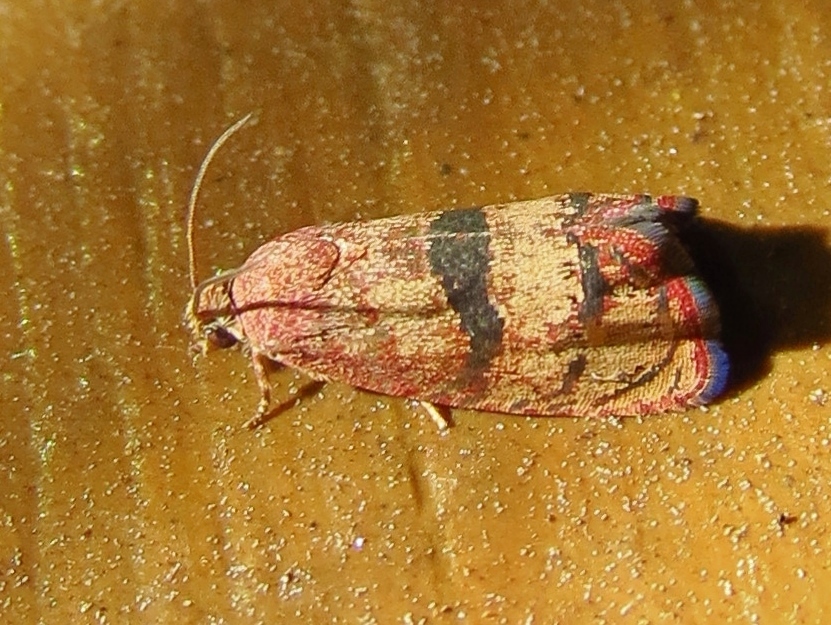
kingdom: Animalia
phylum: Arthropoda
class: Insecta
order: Lepidoptera
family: Tortricidae
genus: Cydia
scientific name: Cydia latiferreana
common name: Filbertworm moth
